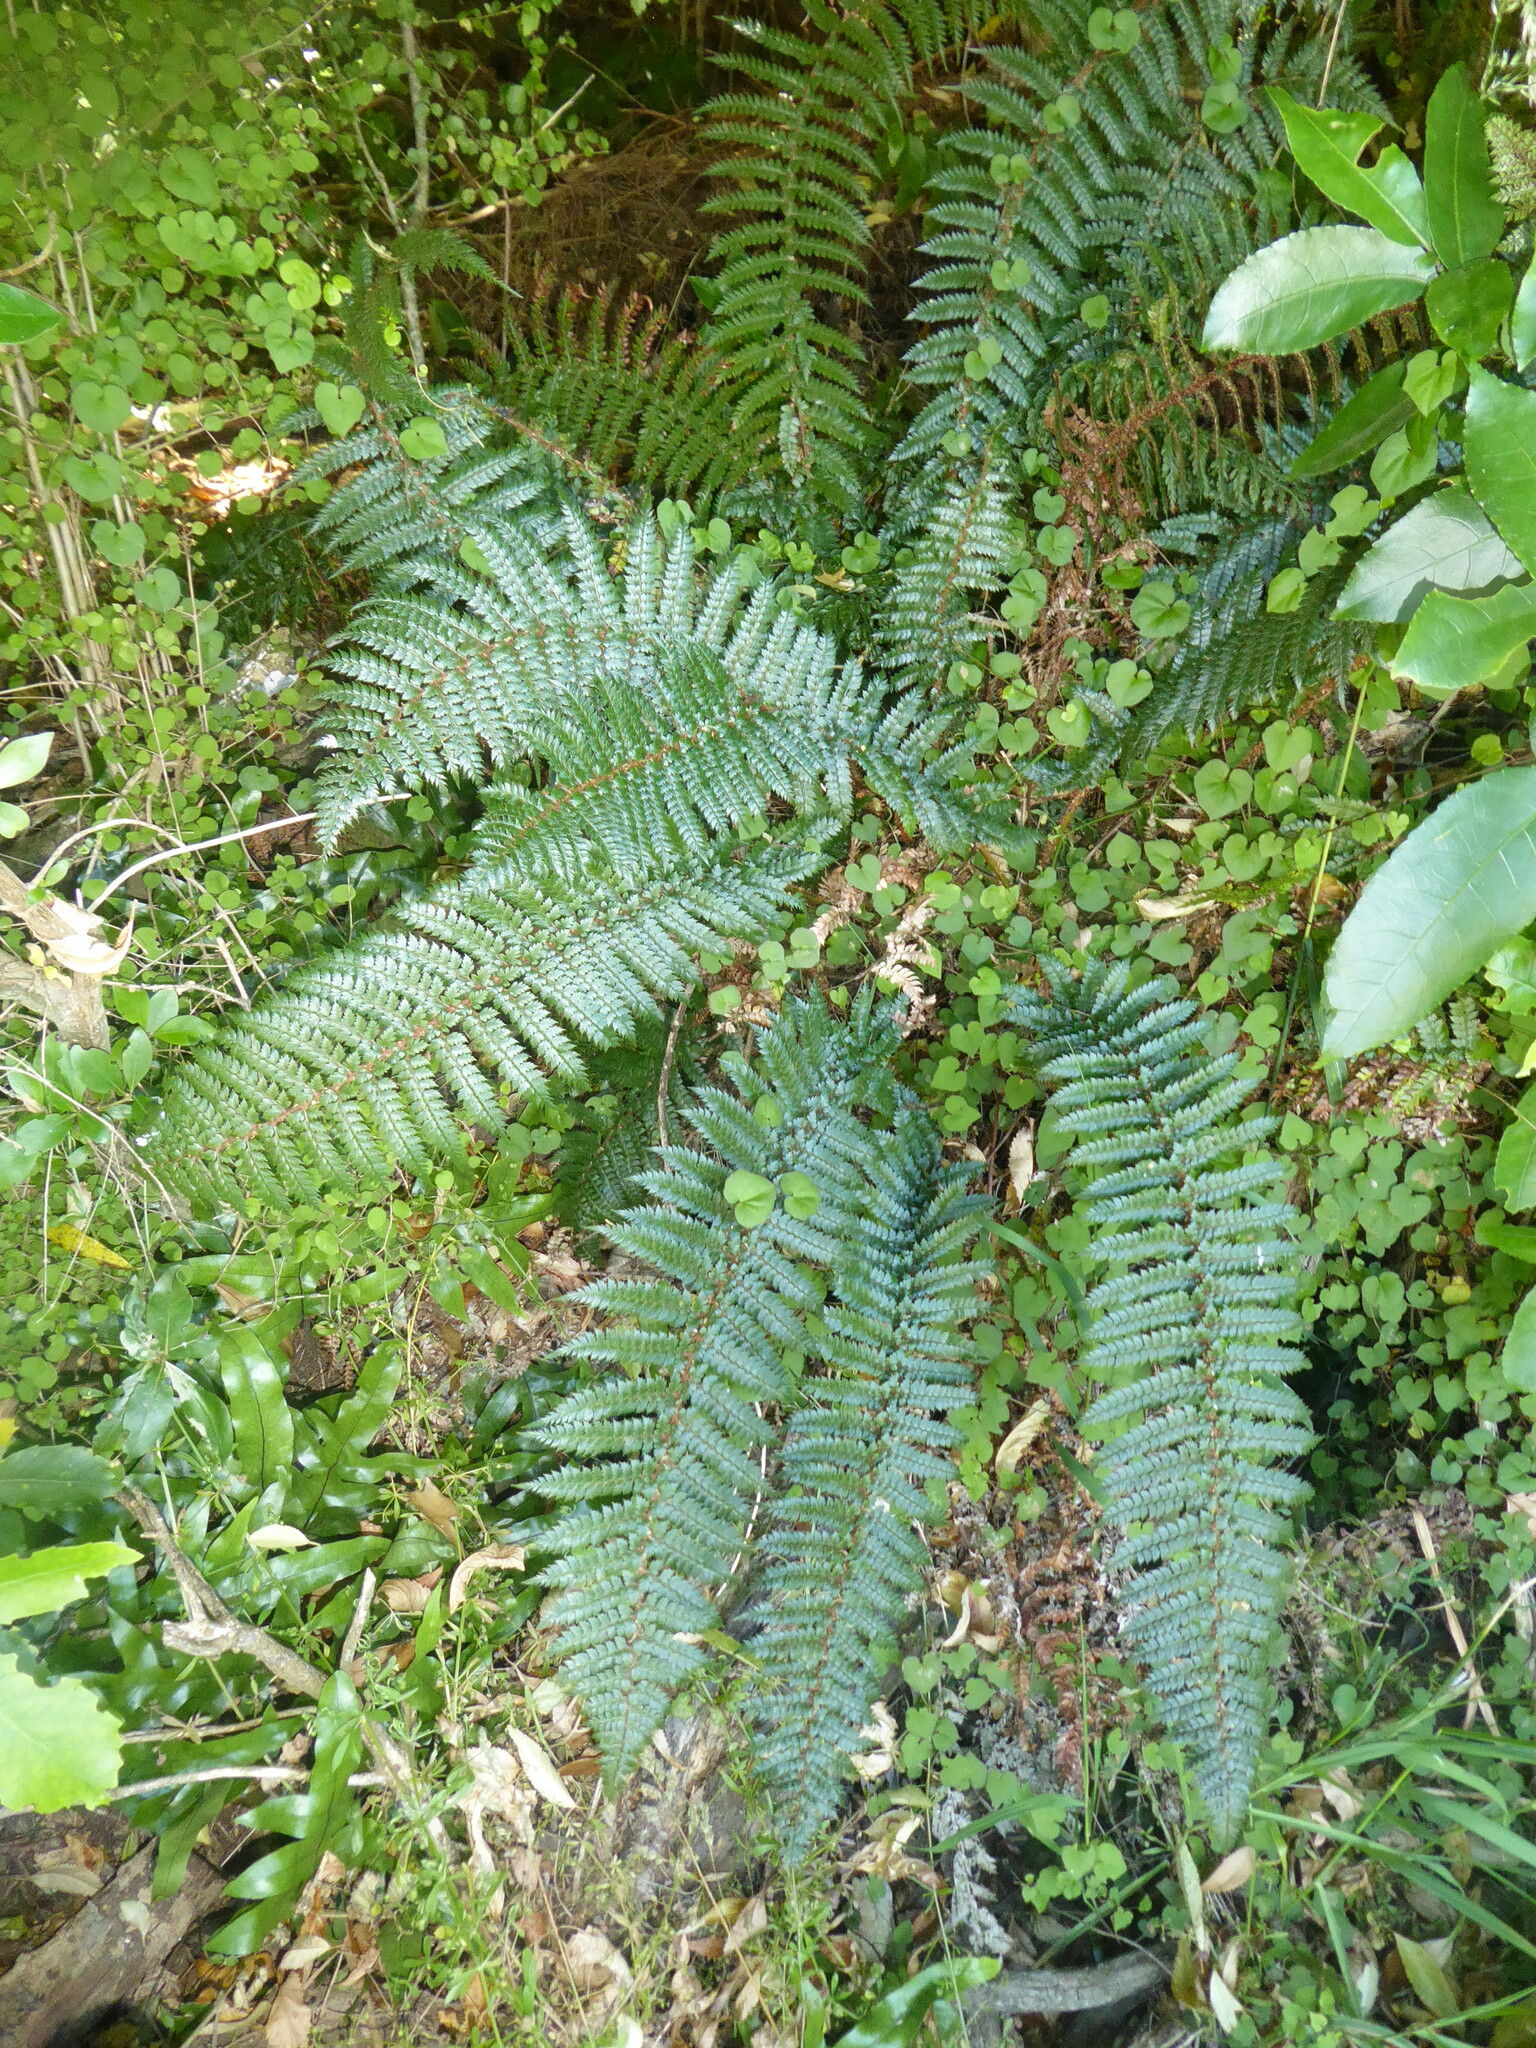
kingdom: Plantae
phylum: Tracheophyta
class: Polypodiopsida
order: Polypodiales
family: Dryopteridaceae
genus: Polystichum
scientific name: Polystichum vestitum
